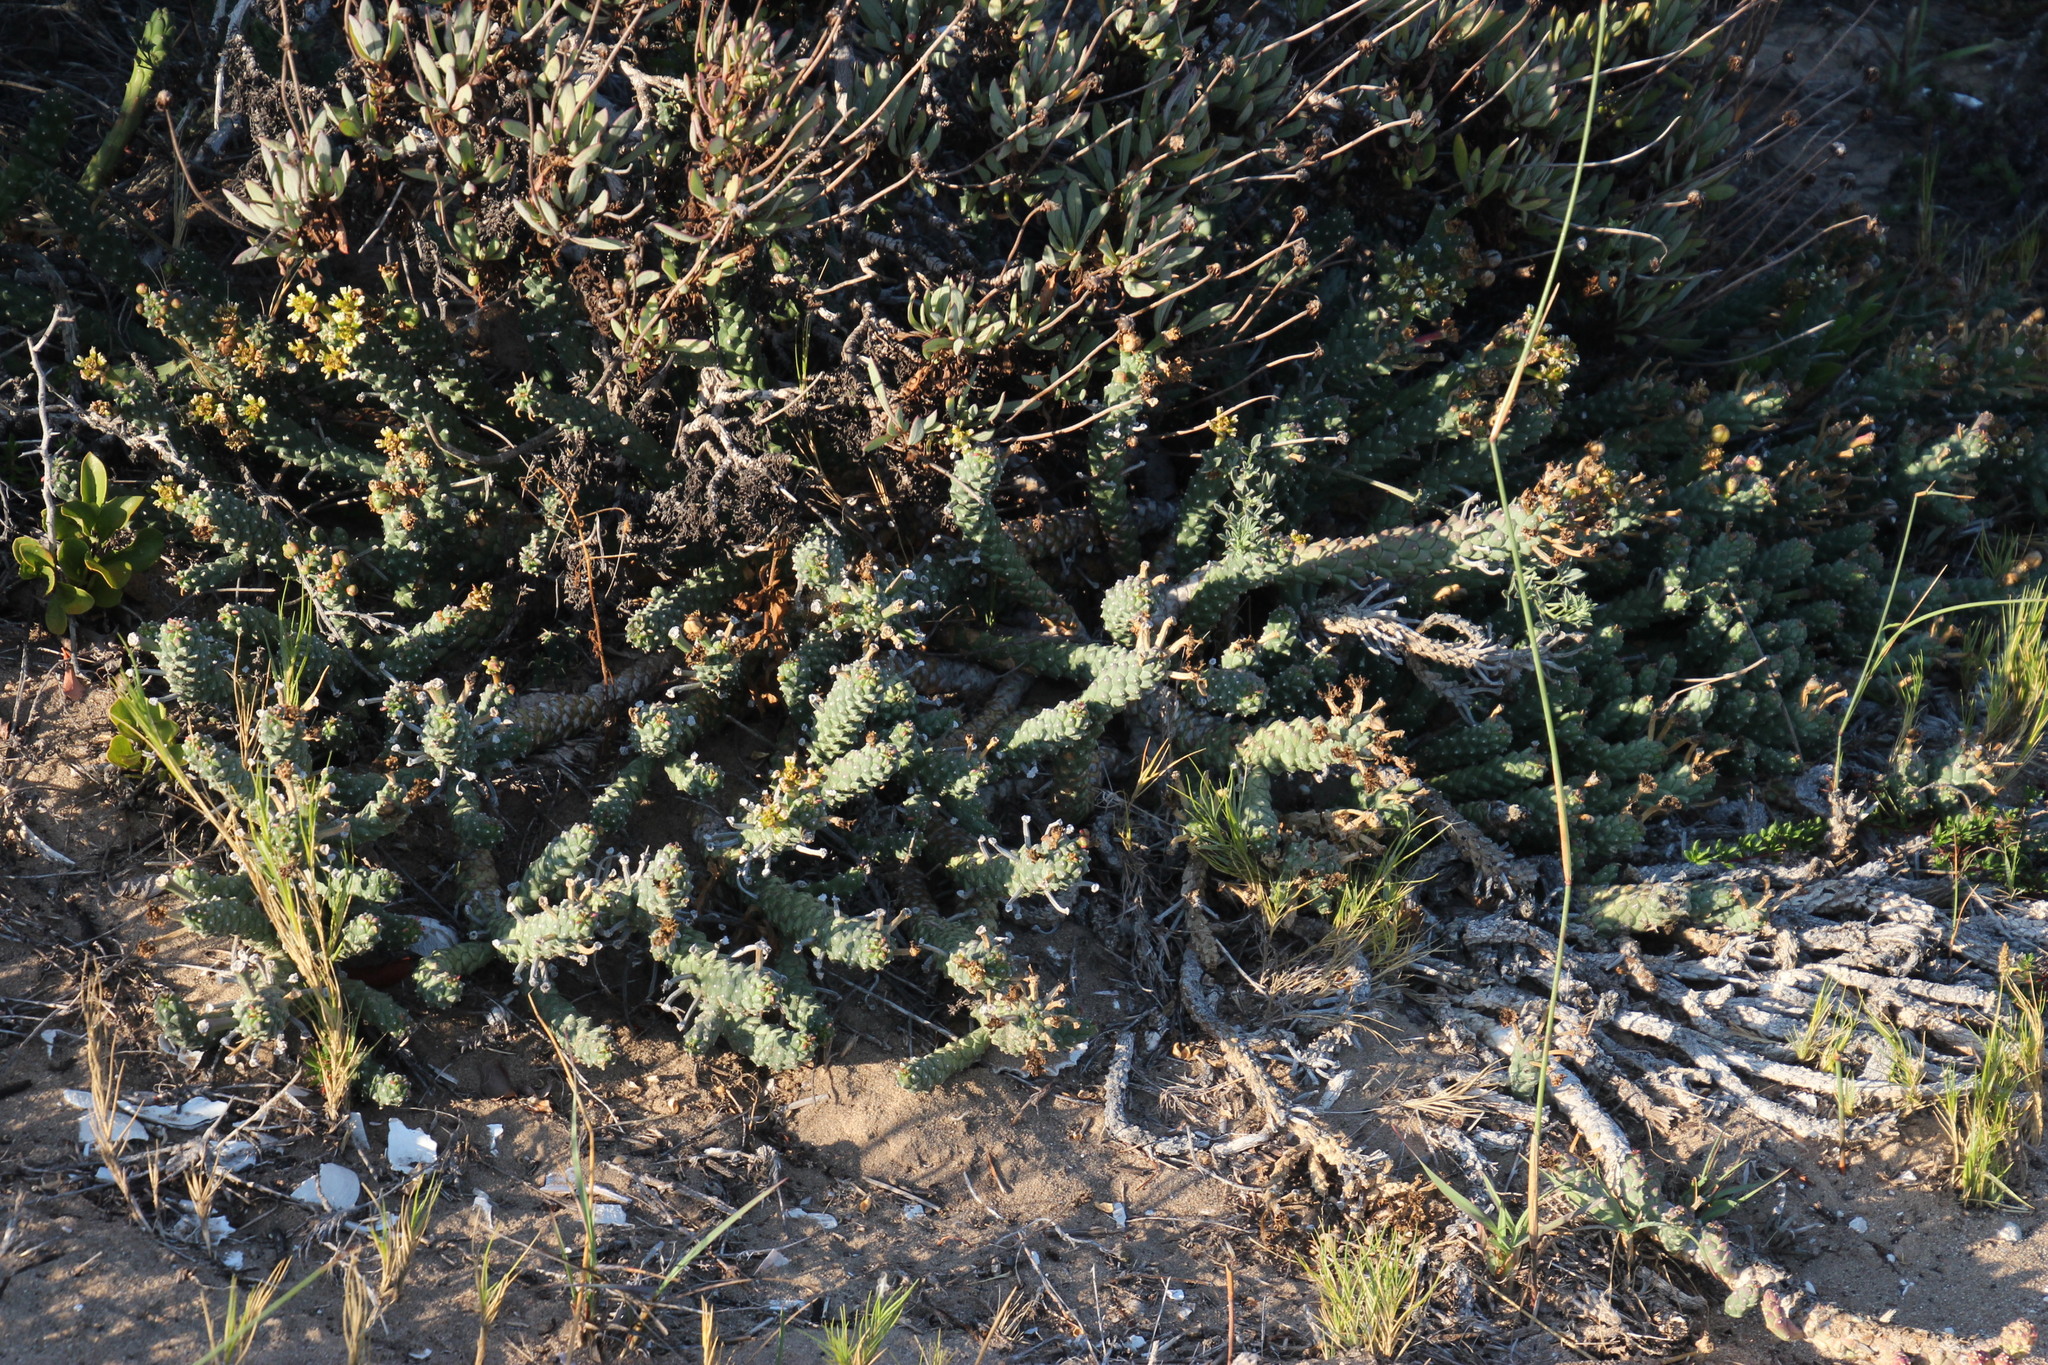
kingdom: Plantae
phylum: Tracheophyta
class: Magnoliopsida
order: Malpighiales
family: Euphorbiaceae
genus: Euphorbia
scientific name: Euphorbia caput-medusae
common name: Medusa's-head
